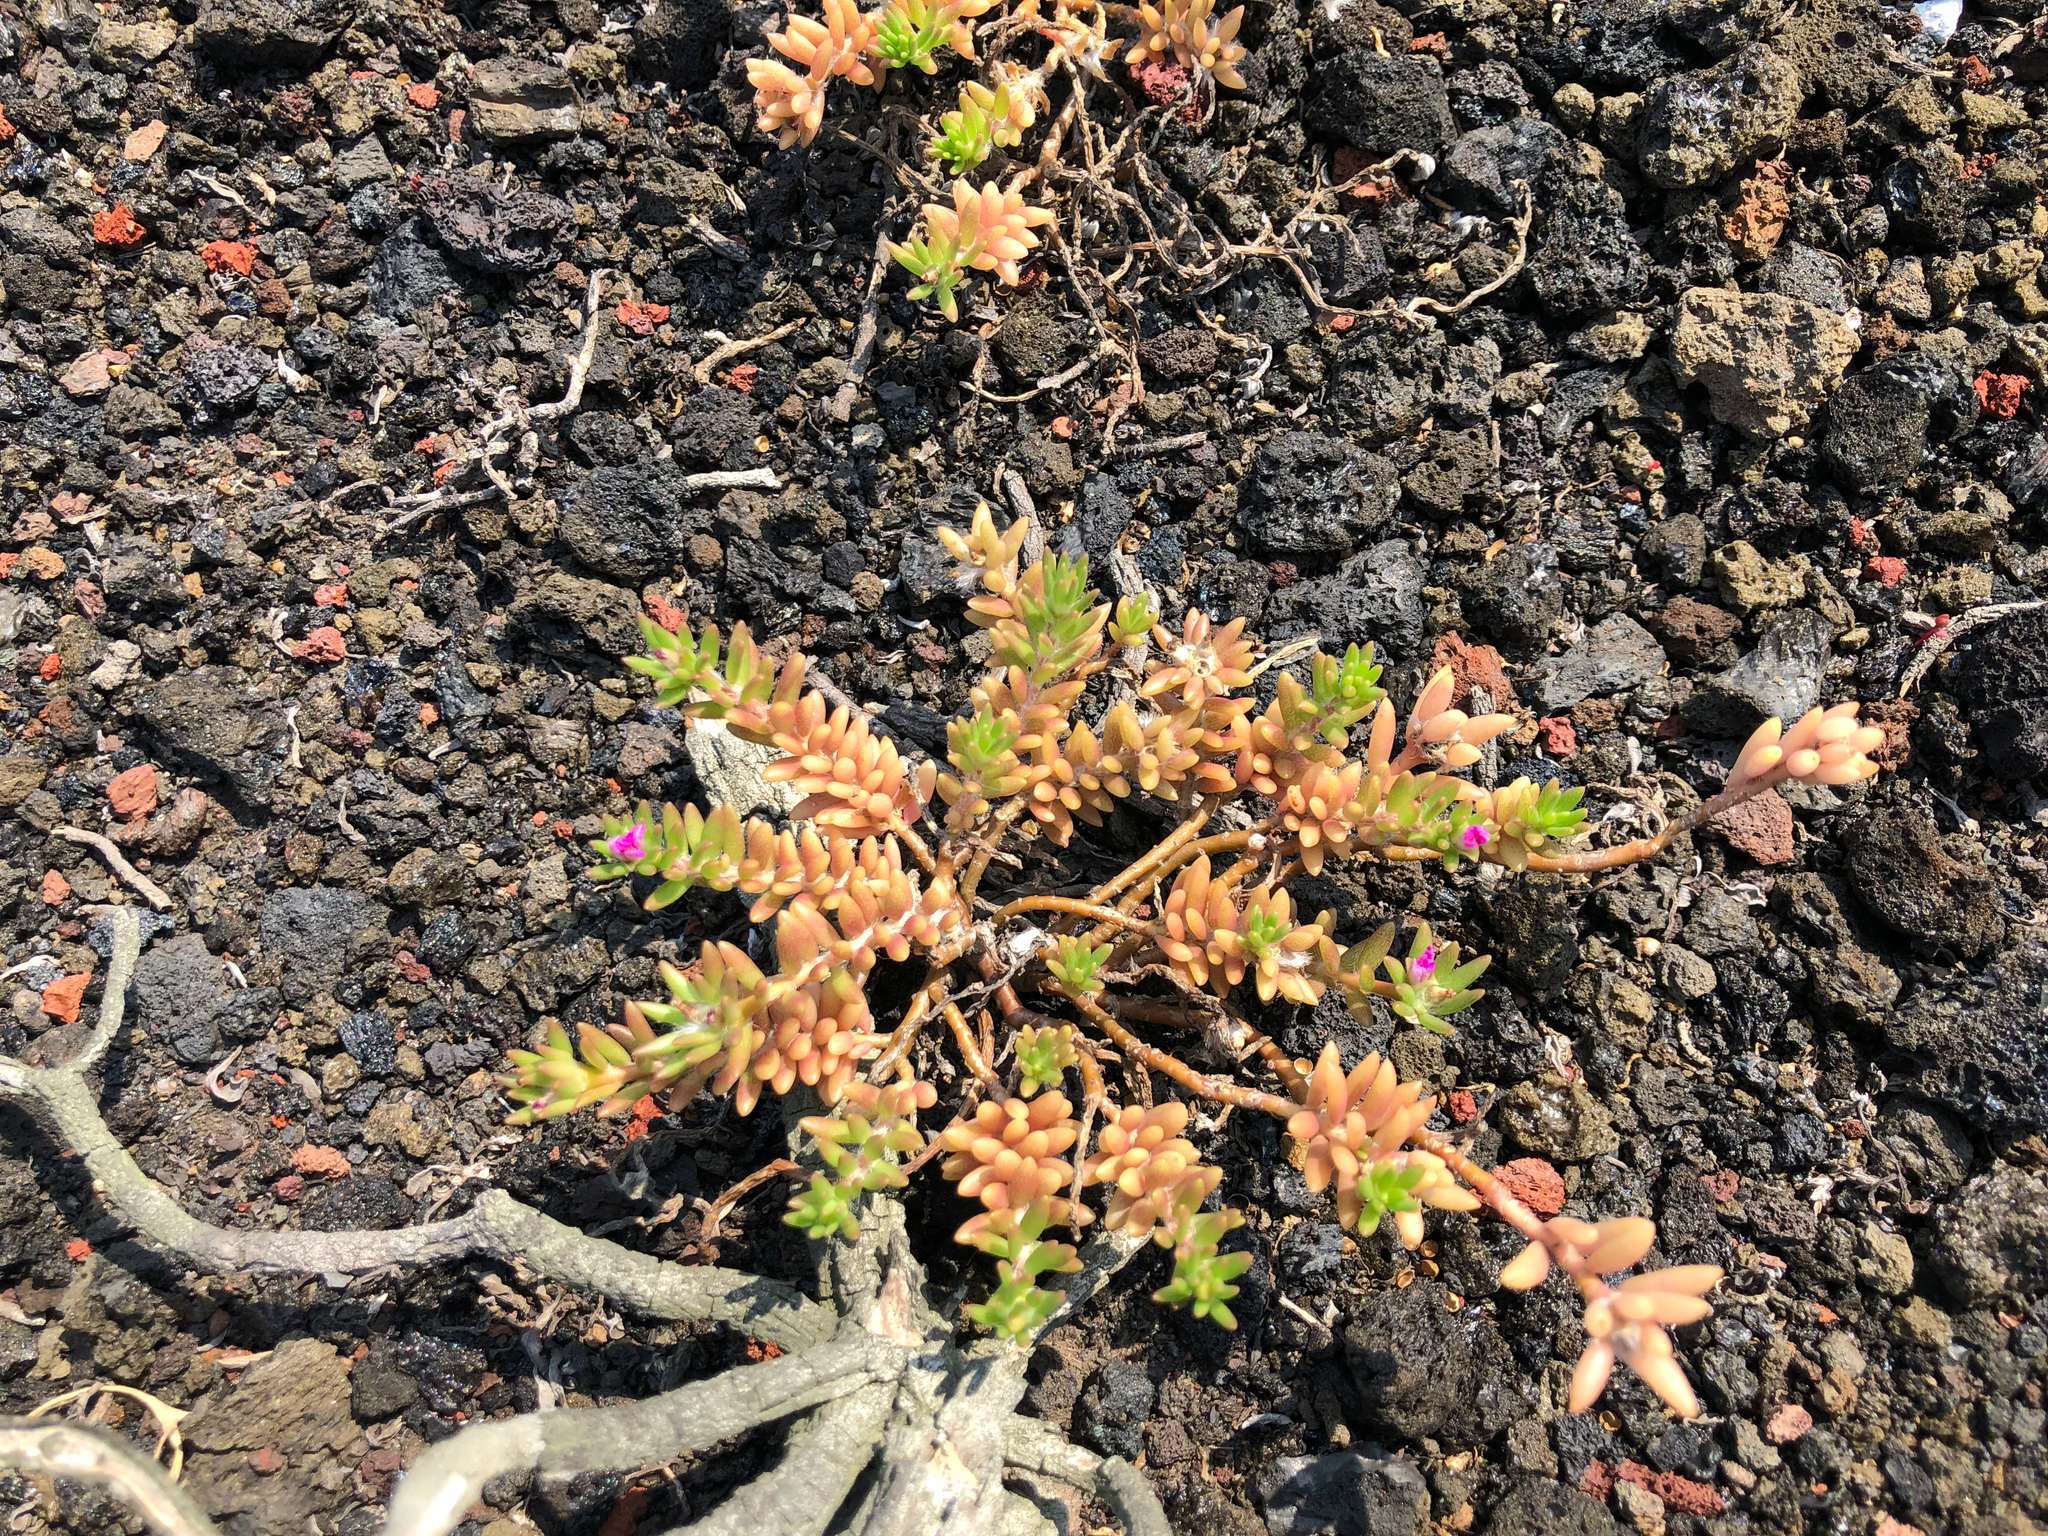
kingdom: Plantae
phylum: Tracheophyta
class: Magnoliopsida
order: Caryophyllales
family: Portulacaceae
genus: Portulaca
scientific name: Portulaca pilosa
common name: Kiss me quick
